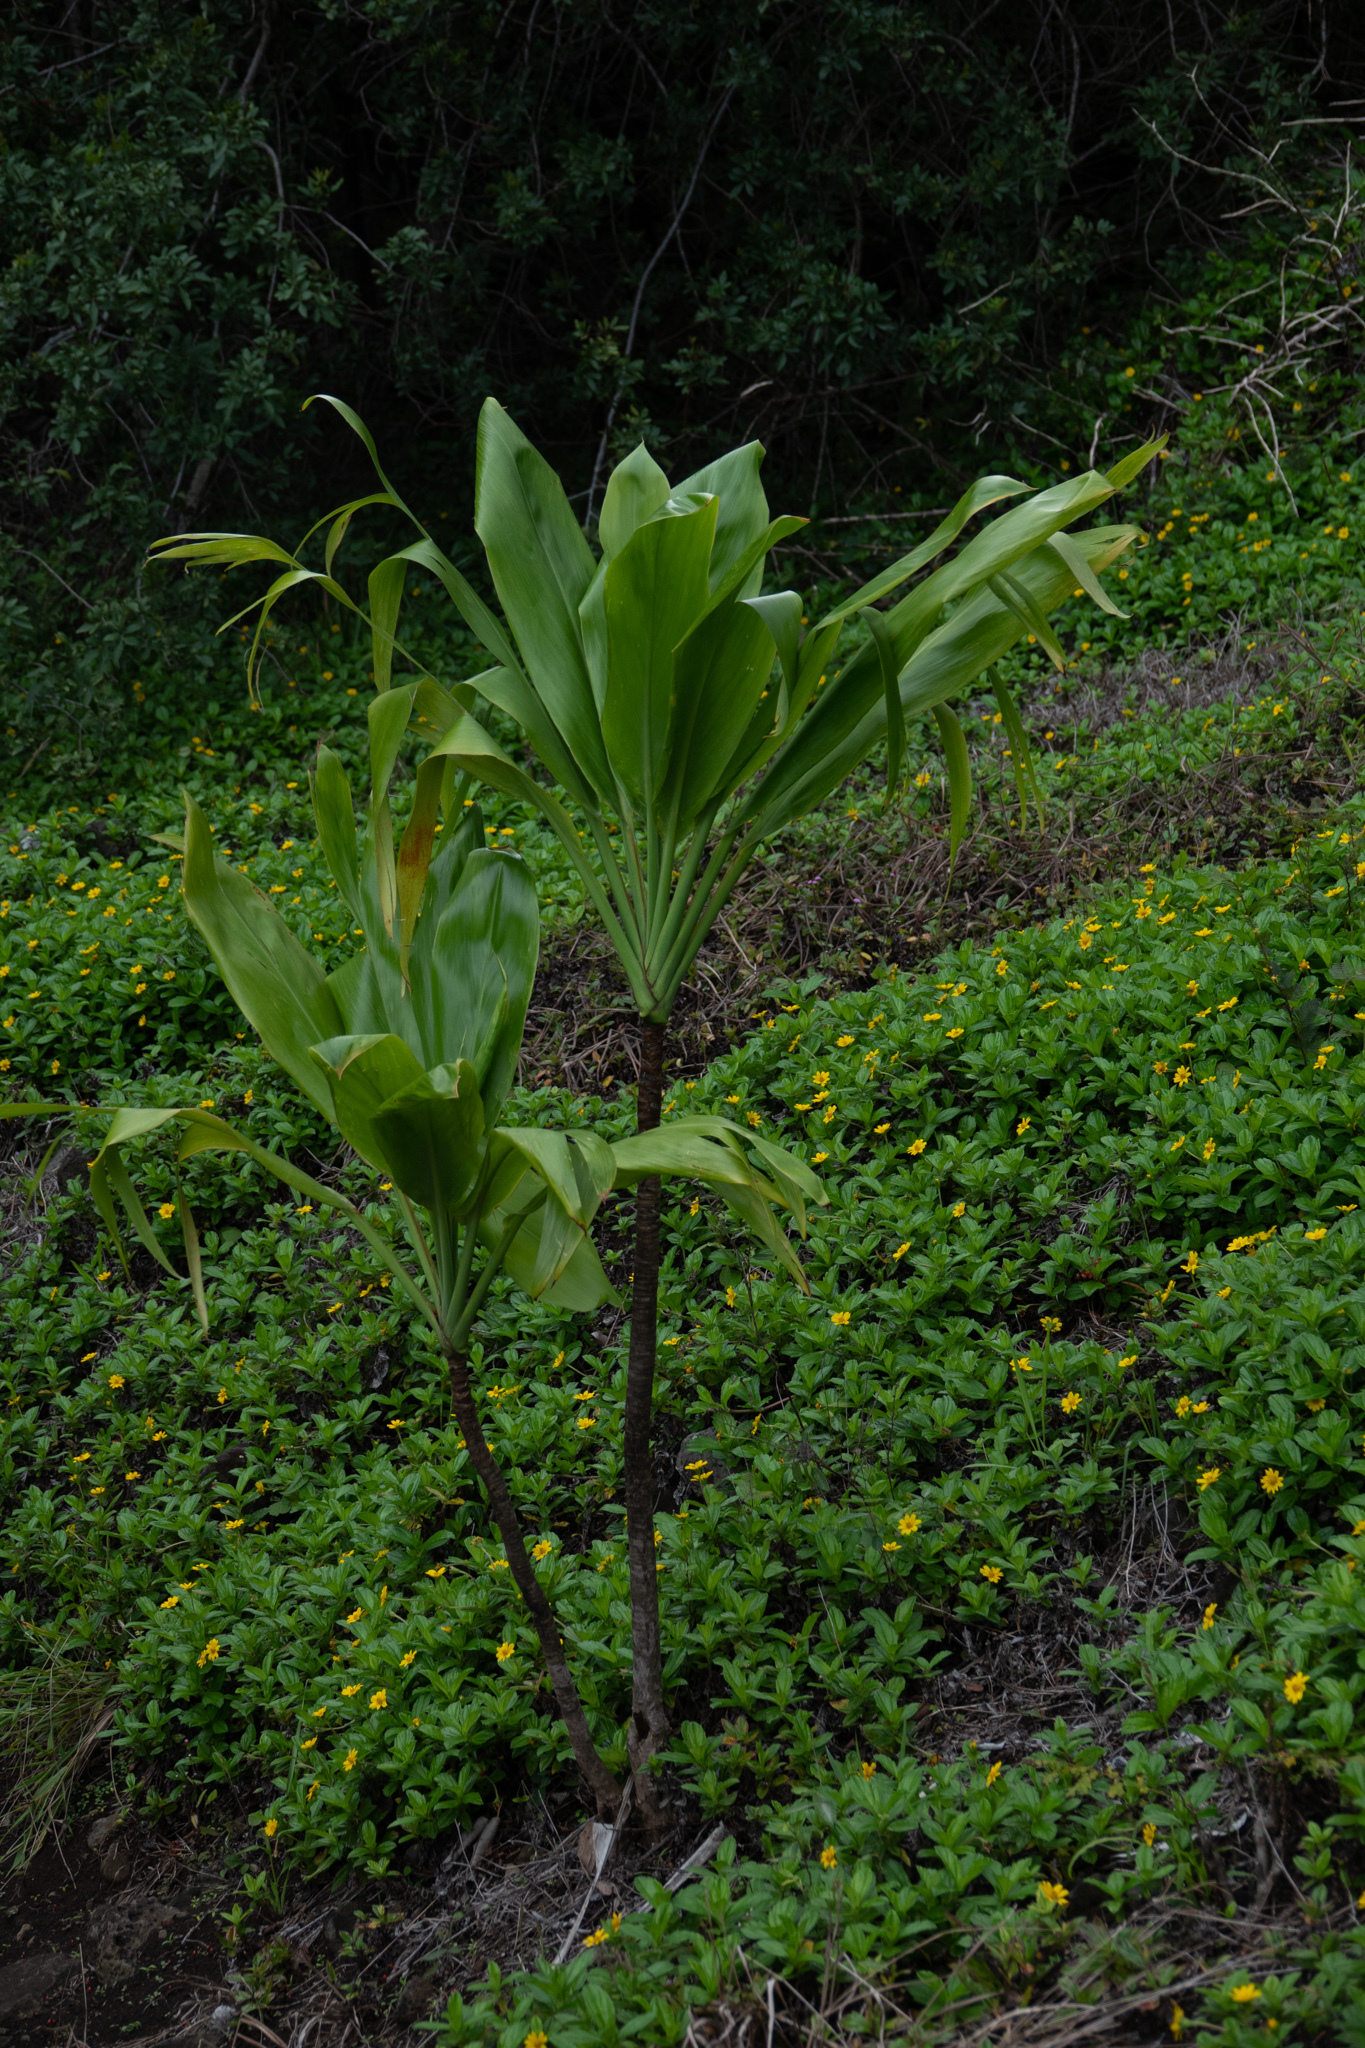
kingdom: Plantae
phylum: Tracheophyta
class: Liliopsida
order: Asparagales
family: Asparagaceae
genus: Cordyline
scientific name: Cordyline fruticosa
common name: Good-luck-plant
